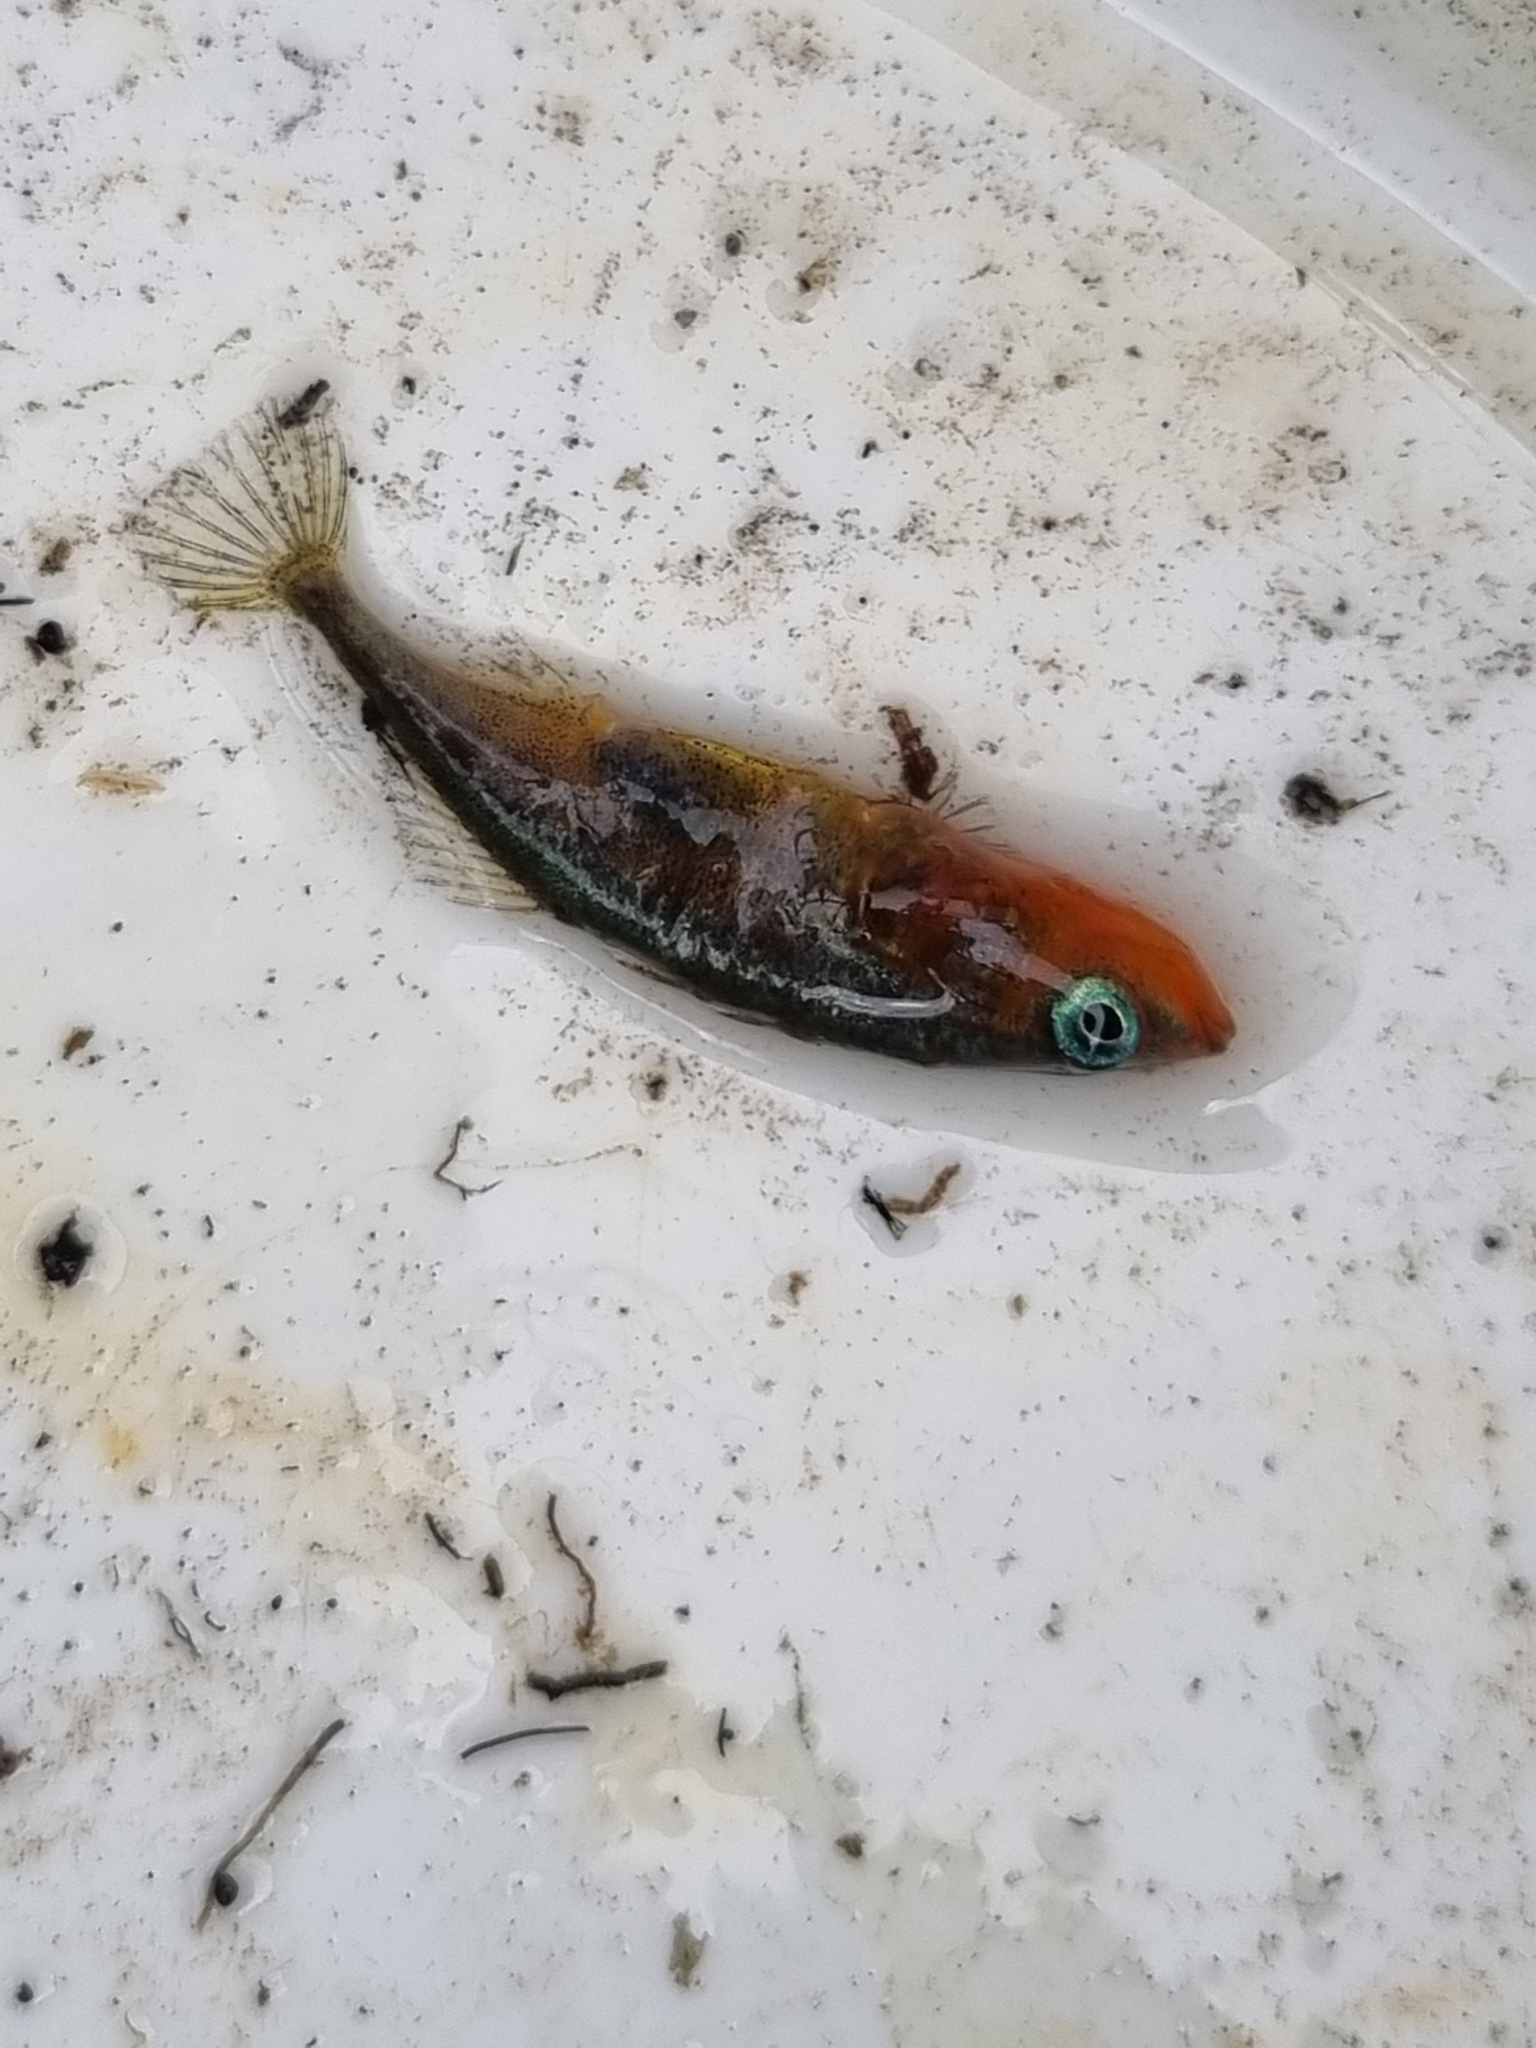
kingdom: Animalia
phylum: Chordata
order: Gasterosteiformes
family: Gasterosteidae
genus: Gasterosteus
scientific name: Gasterosteus aculeatus
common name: Three-spined stickleback
